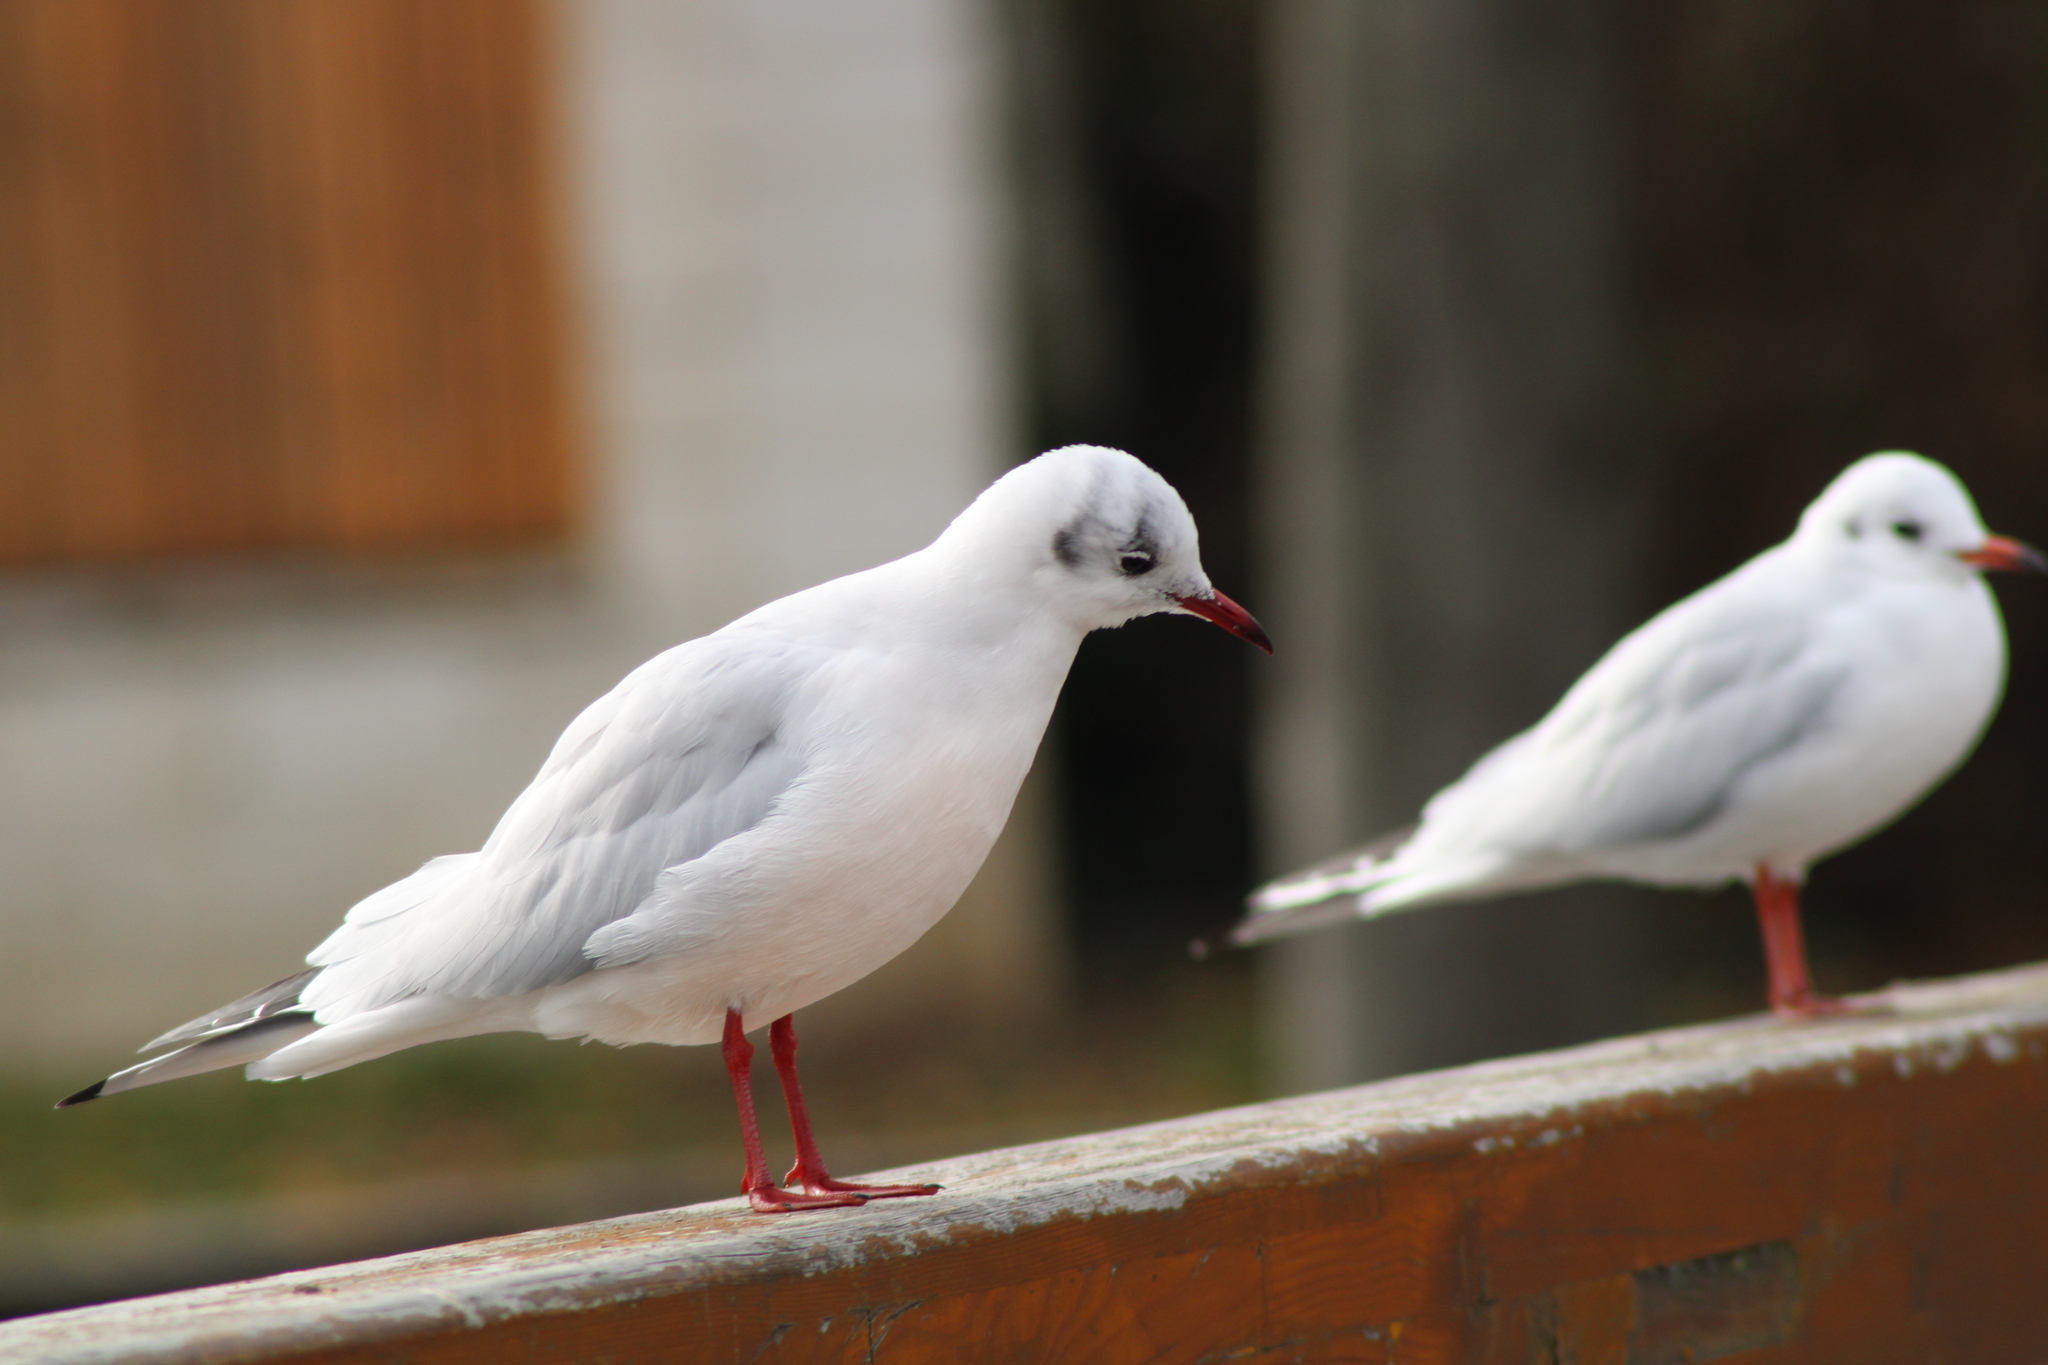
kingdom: Animalia
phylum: Chordata
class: Aves
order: Charadriiformes
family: Laridae
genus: Chroicocephalus
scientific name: Chroicocephalus ridibundus
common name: Black-headed gull
